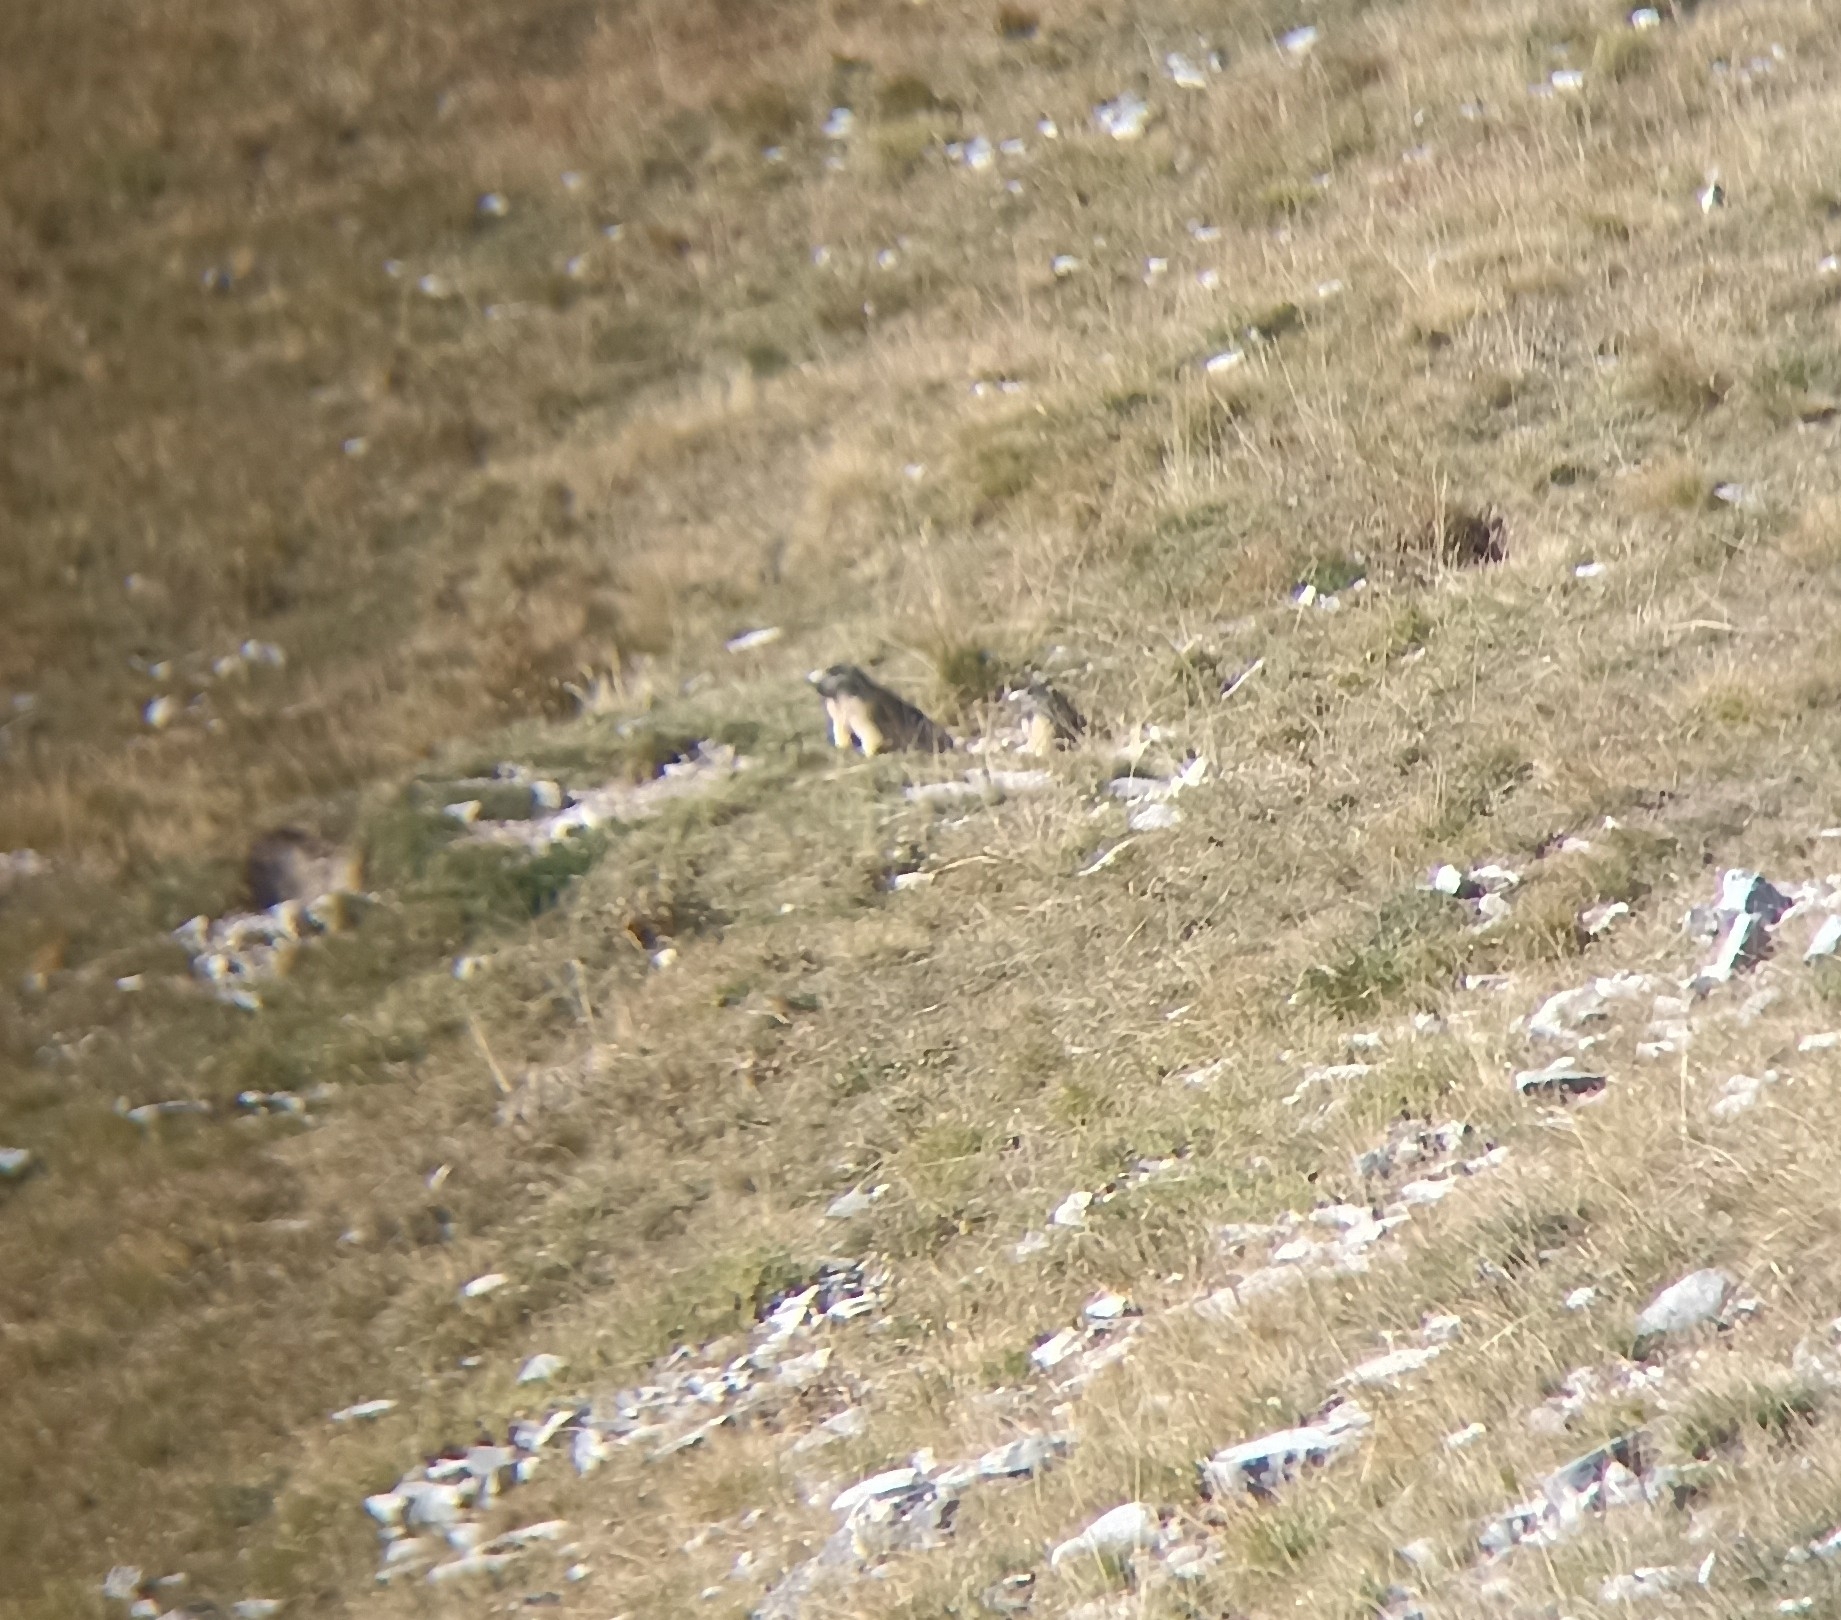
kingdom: Animalia
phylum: Chordata
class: Mammalia
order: Rodentia
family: Sciuridae
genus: Marmota
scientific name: Marmota marmota
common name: Alpine marmot
